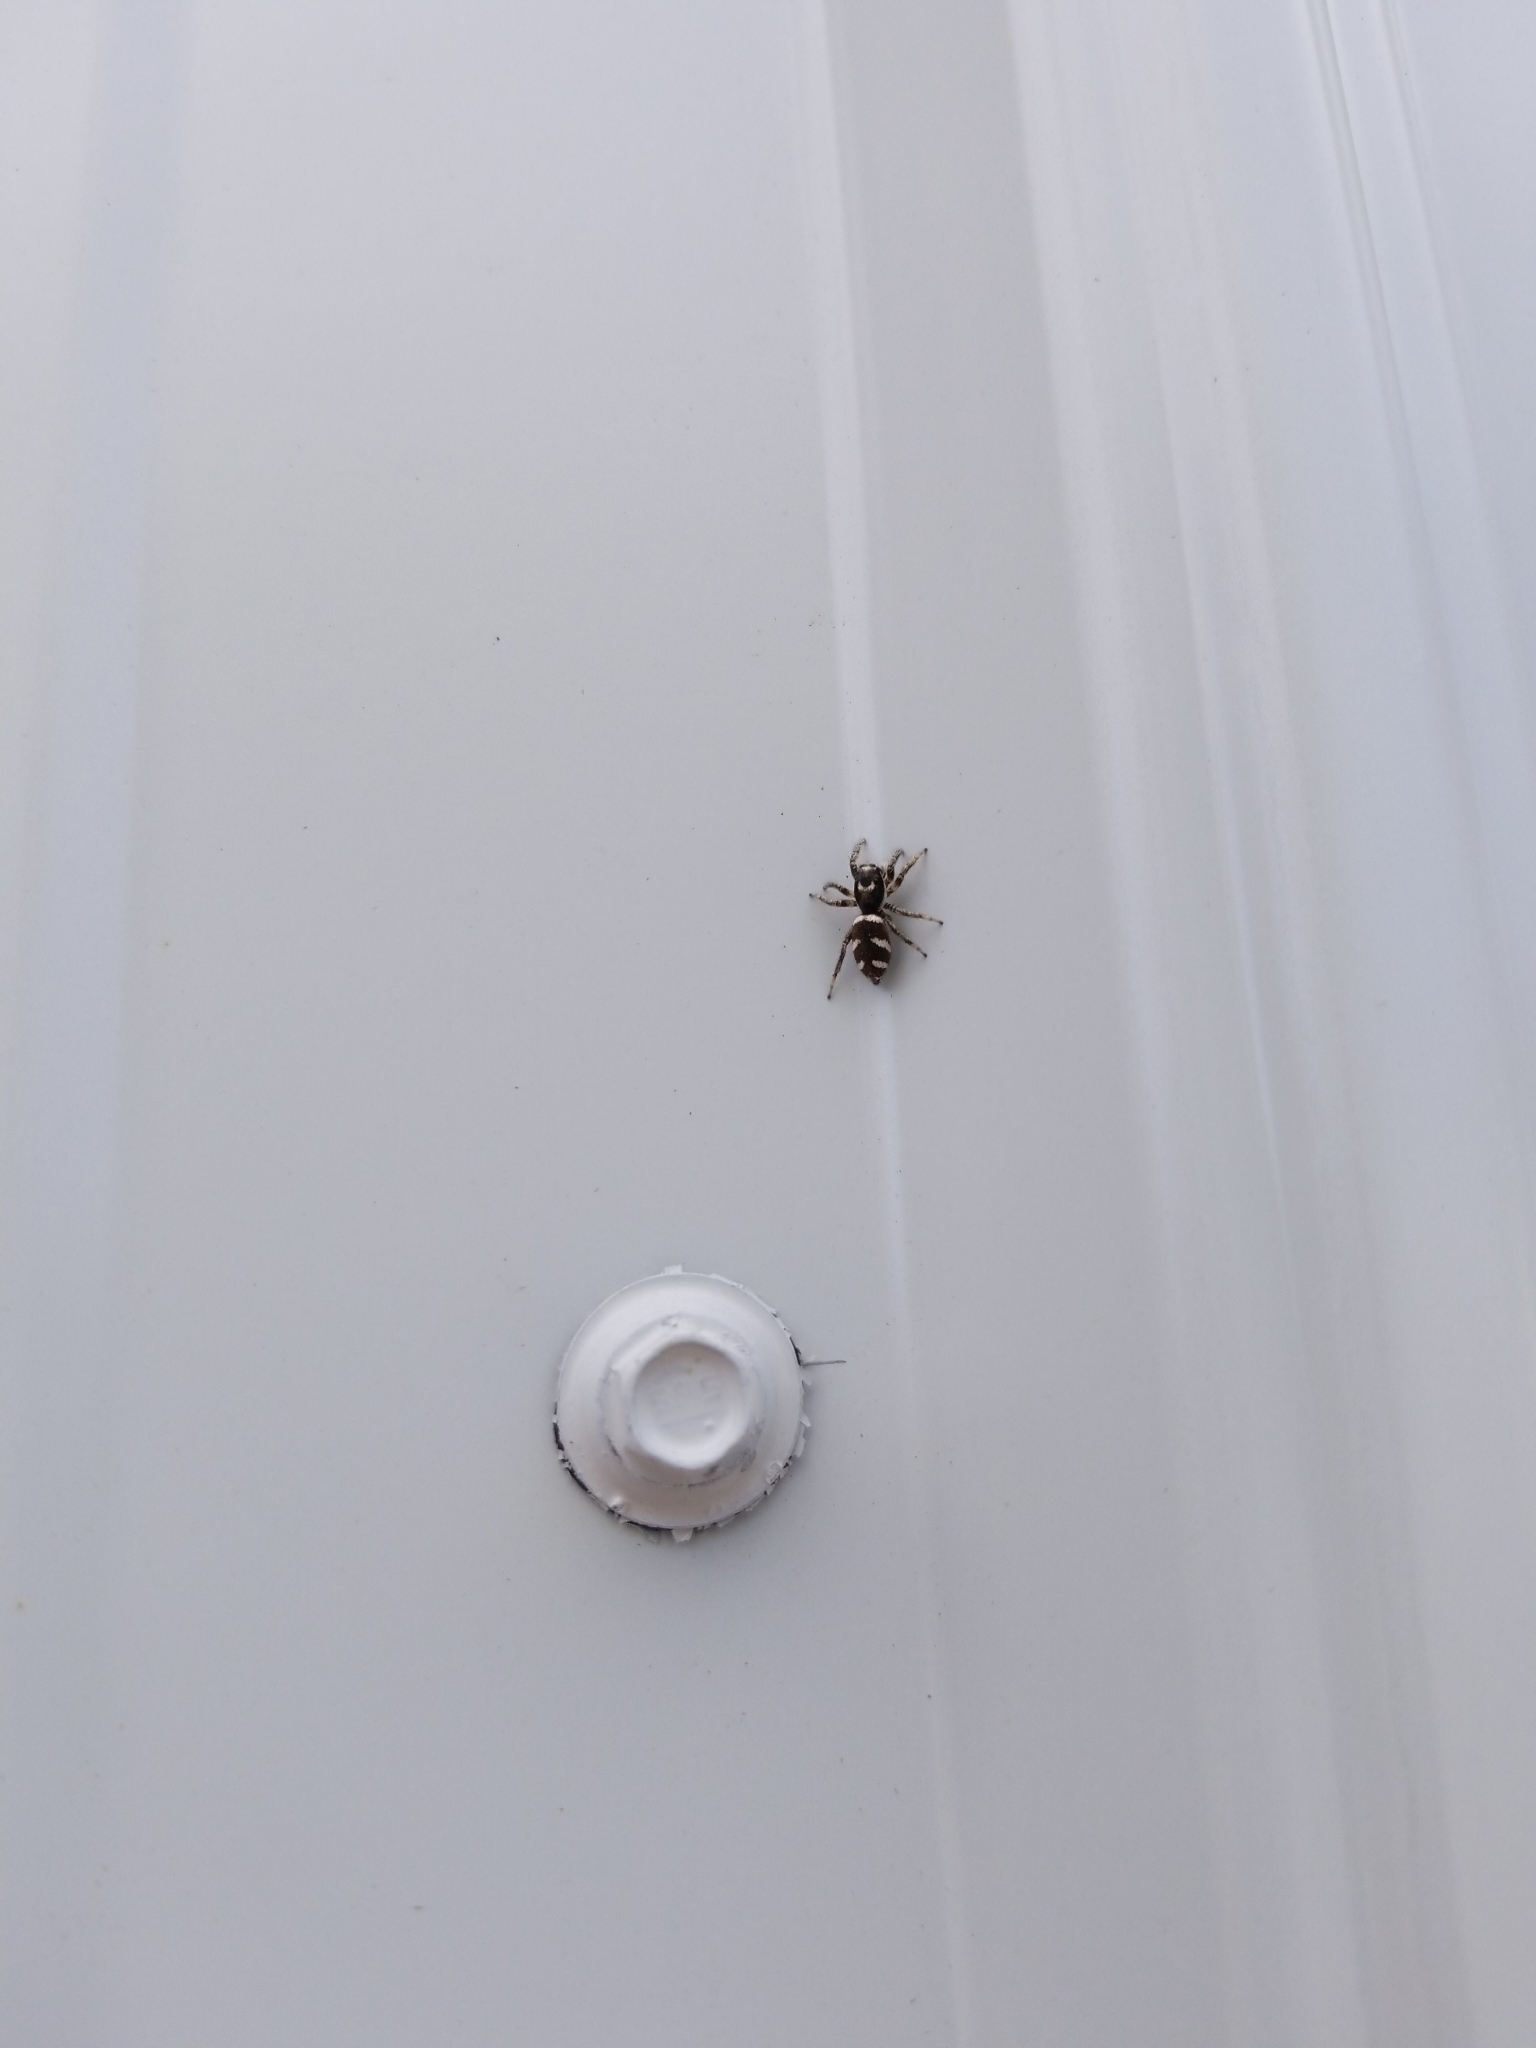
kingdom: Animalia
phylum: Arthropoda
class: Arachnida
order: Araneae
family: Salticidae
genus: Salticus
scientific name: Salticus scenicus
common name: Zebra jumper
